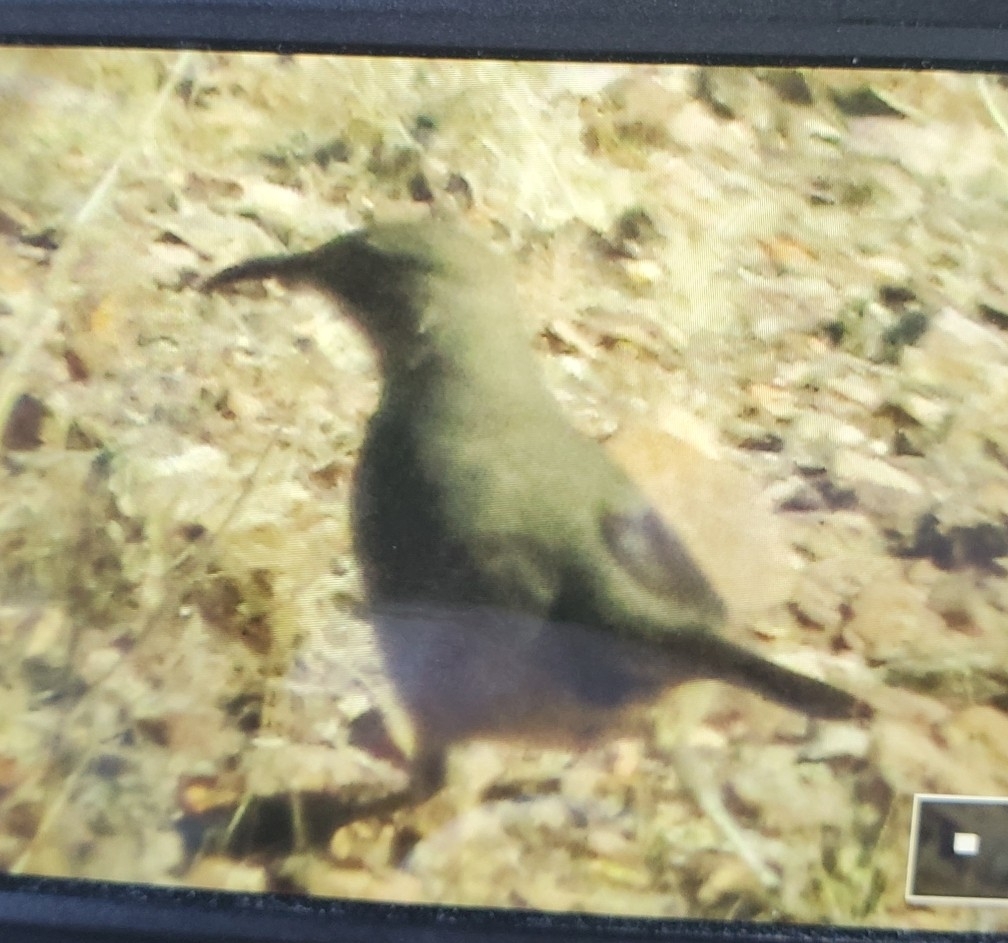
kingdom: Animalia
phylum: Chordata
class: Aves
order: Passeriformes
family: Mimidae
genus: Toxostoma
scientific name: Toxostoma curvirostre
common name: Curve-billed thrasher
